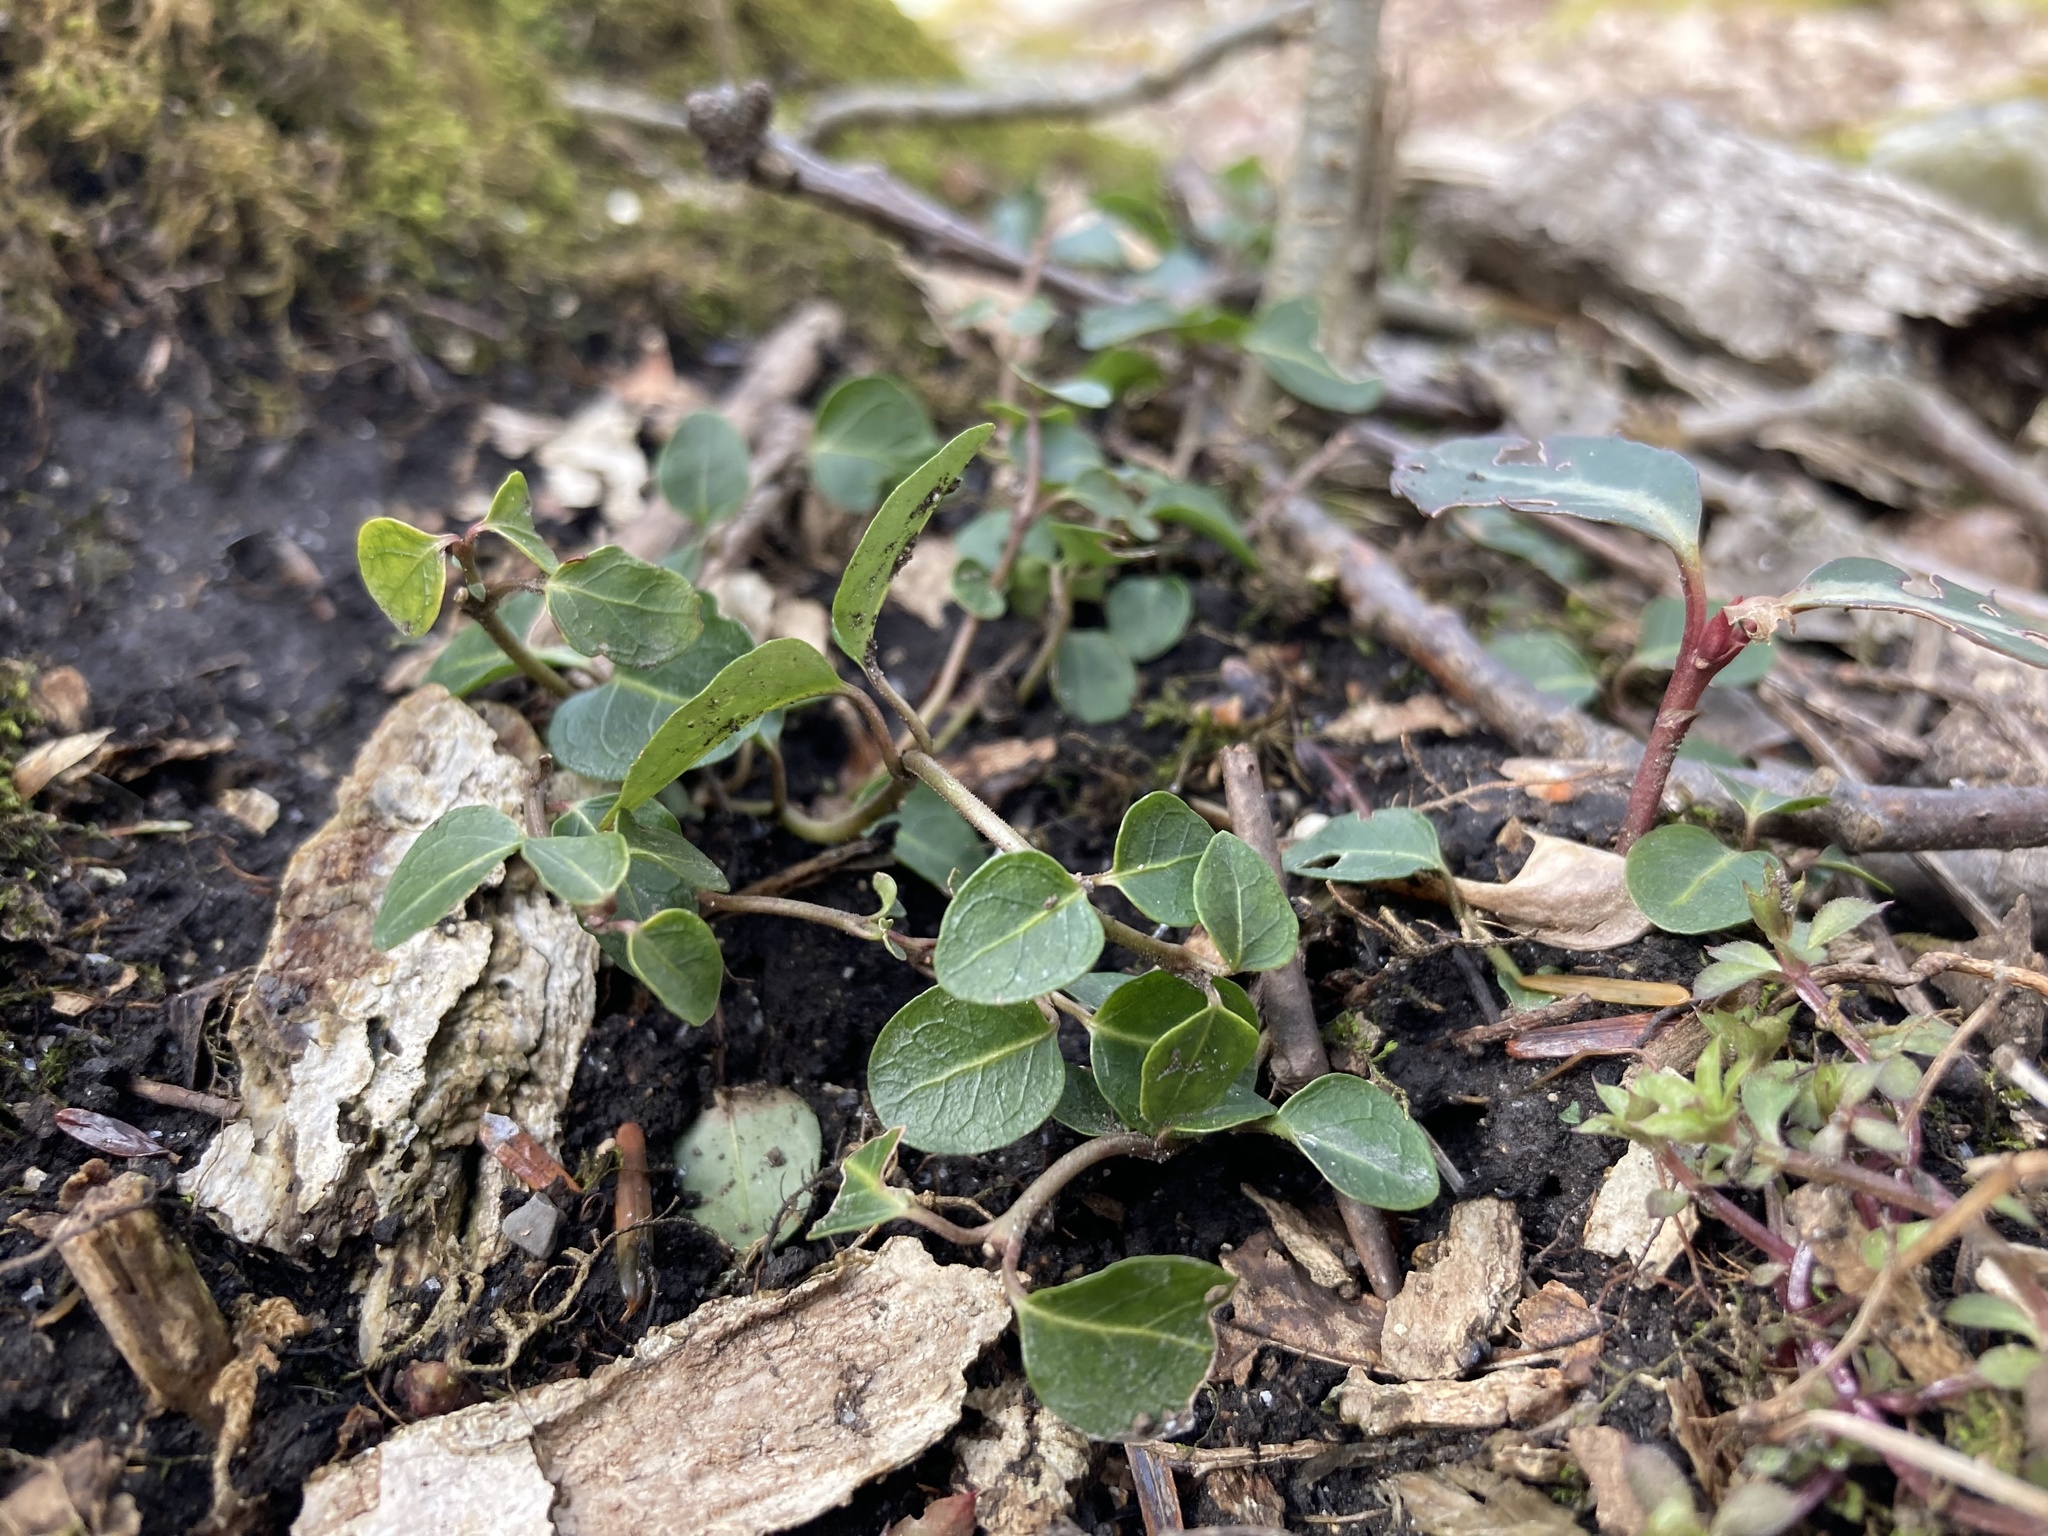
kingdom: Plantae
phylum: Tracheophyta
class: Magnoliopsida
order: Gentianales
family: Rubiaceae
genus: Mitchella
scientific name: Mitchella repens
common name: Partridge-berry
